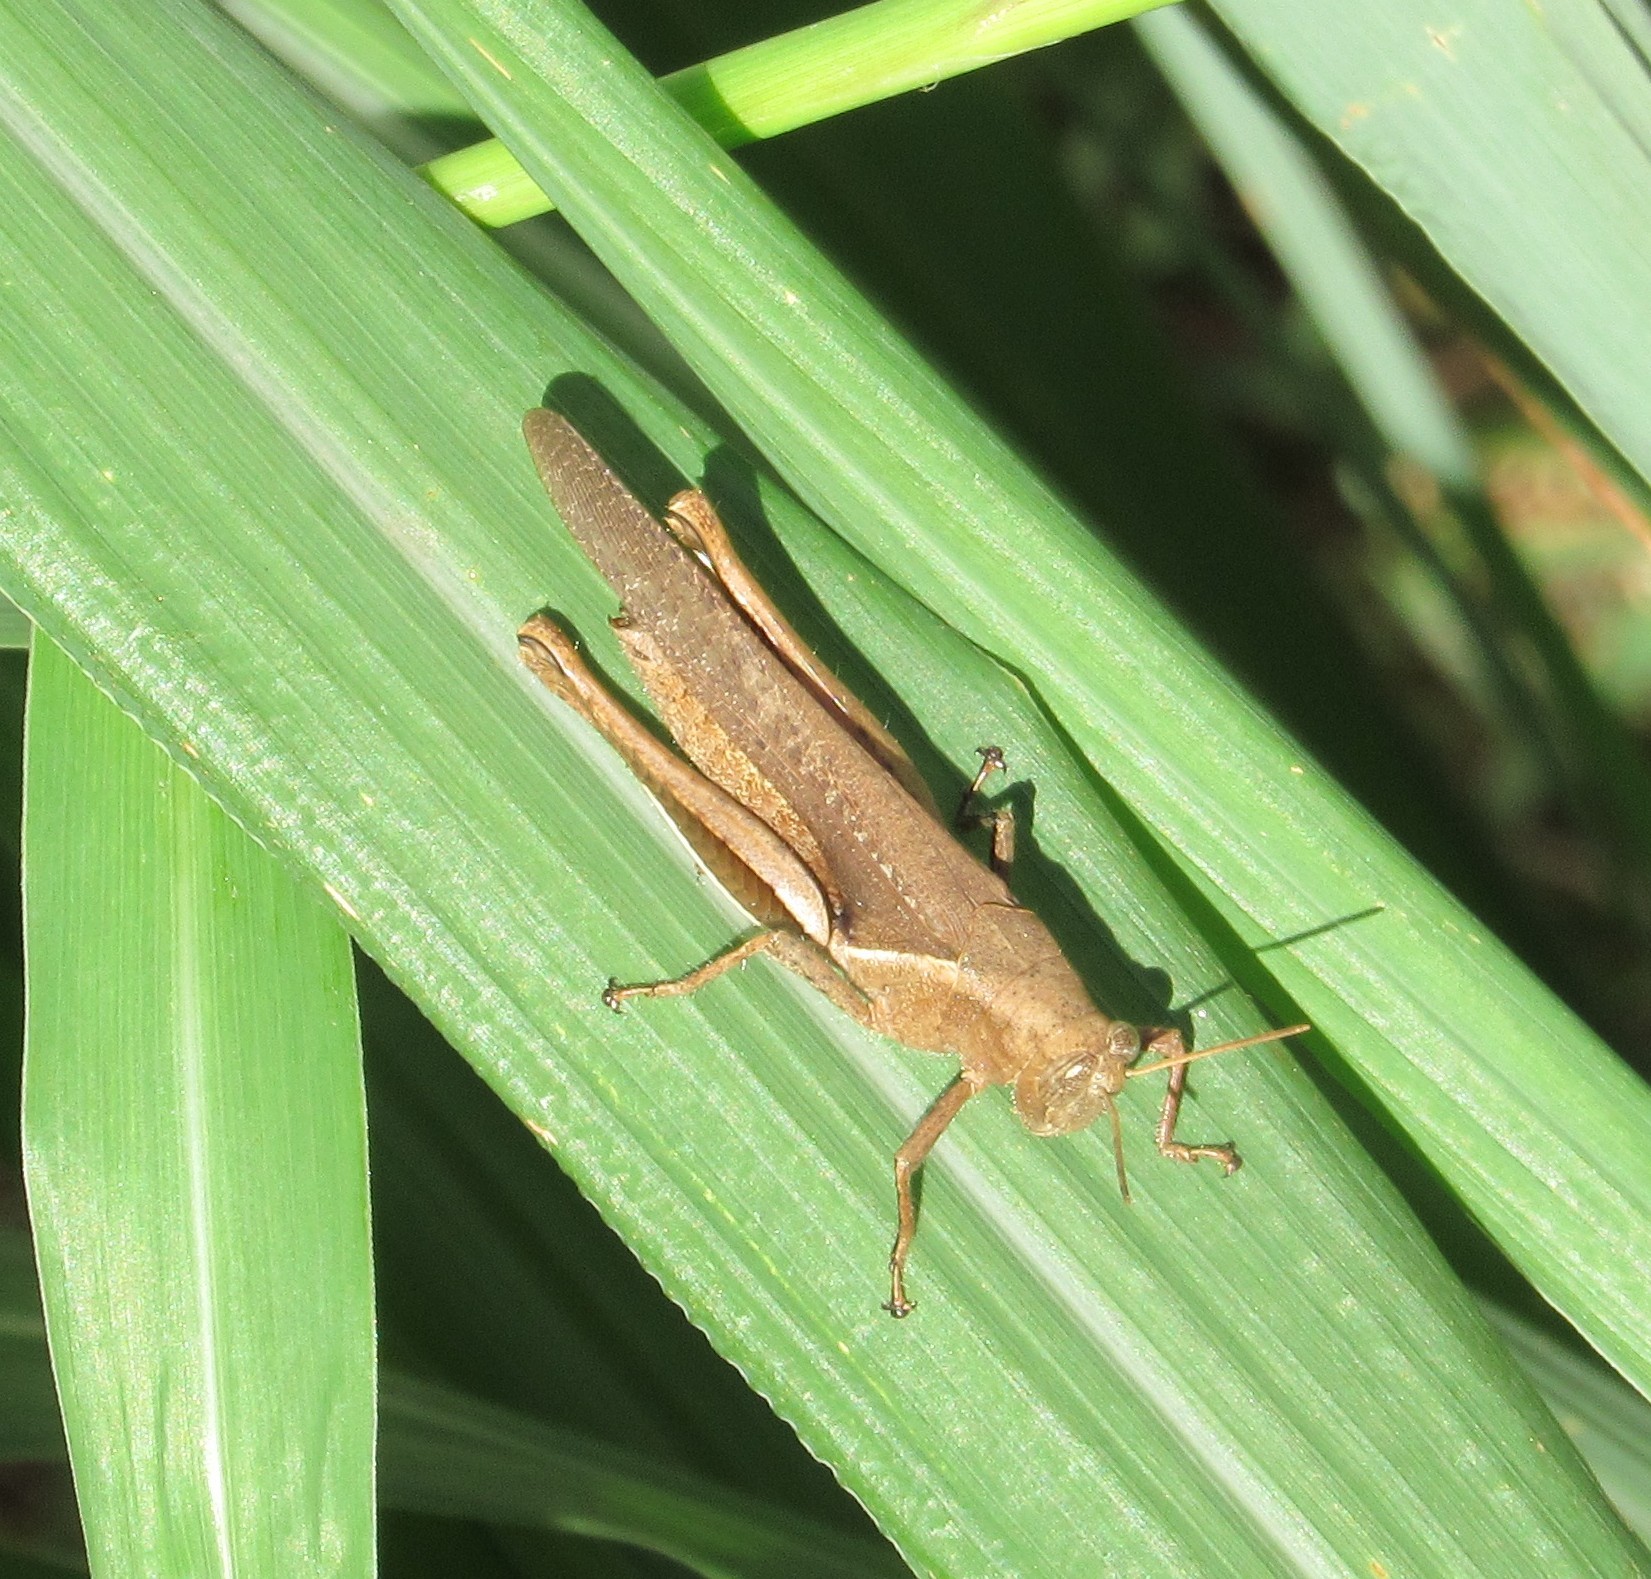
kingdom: Animalia
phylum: Arthropoda
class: Insecta
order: Orthoptera
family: Acrididae
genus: Abracris
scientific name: Abracris flavolineata
